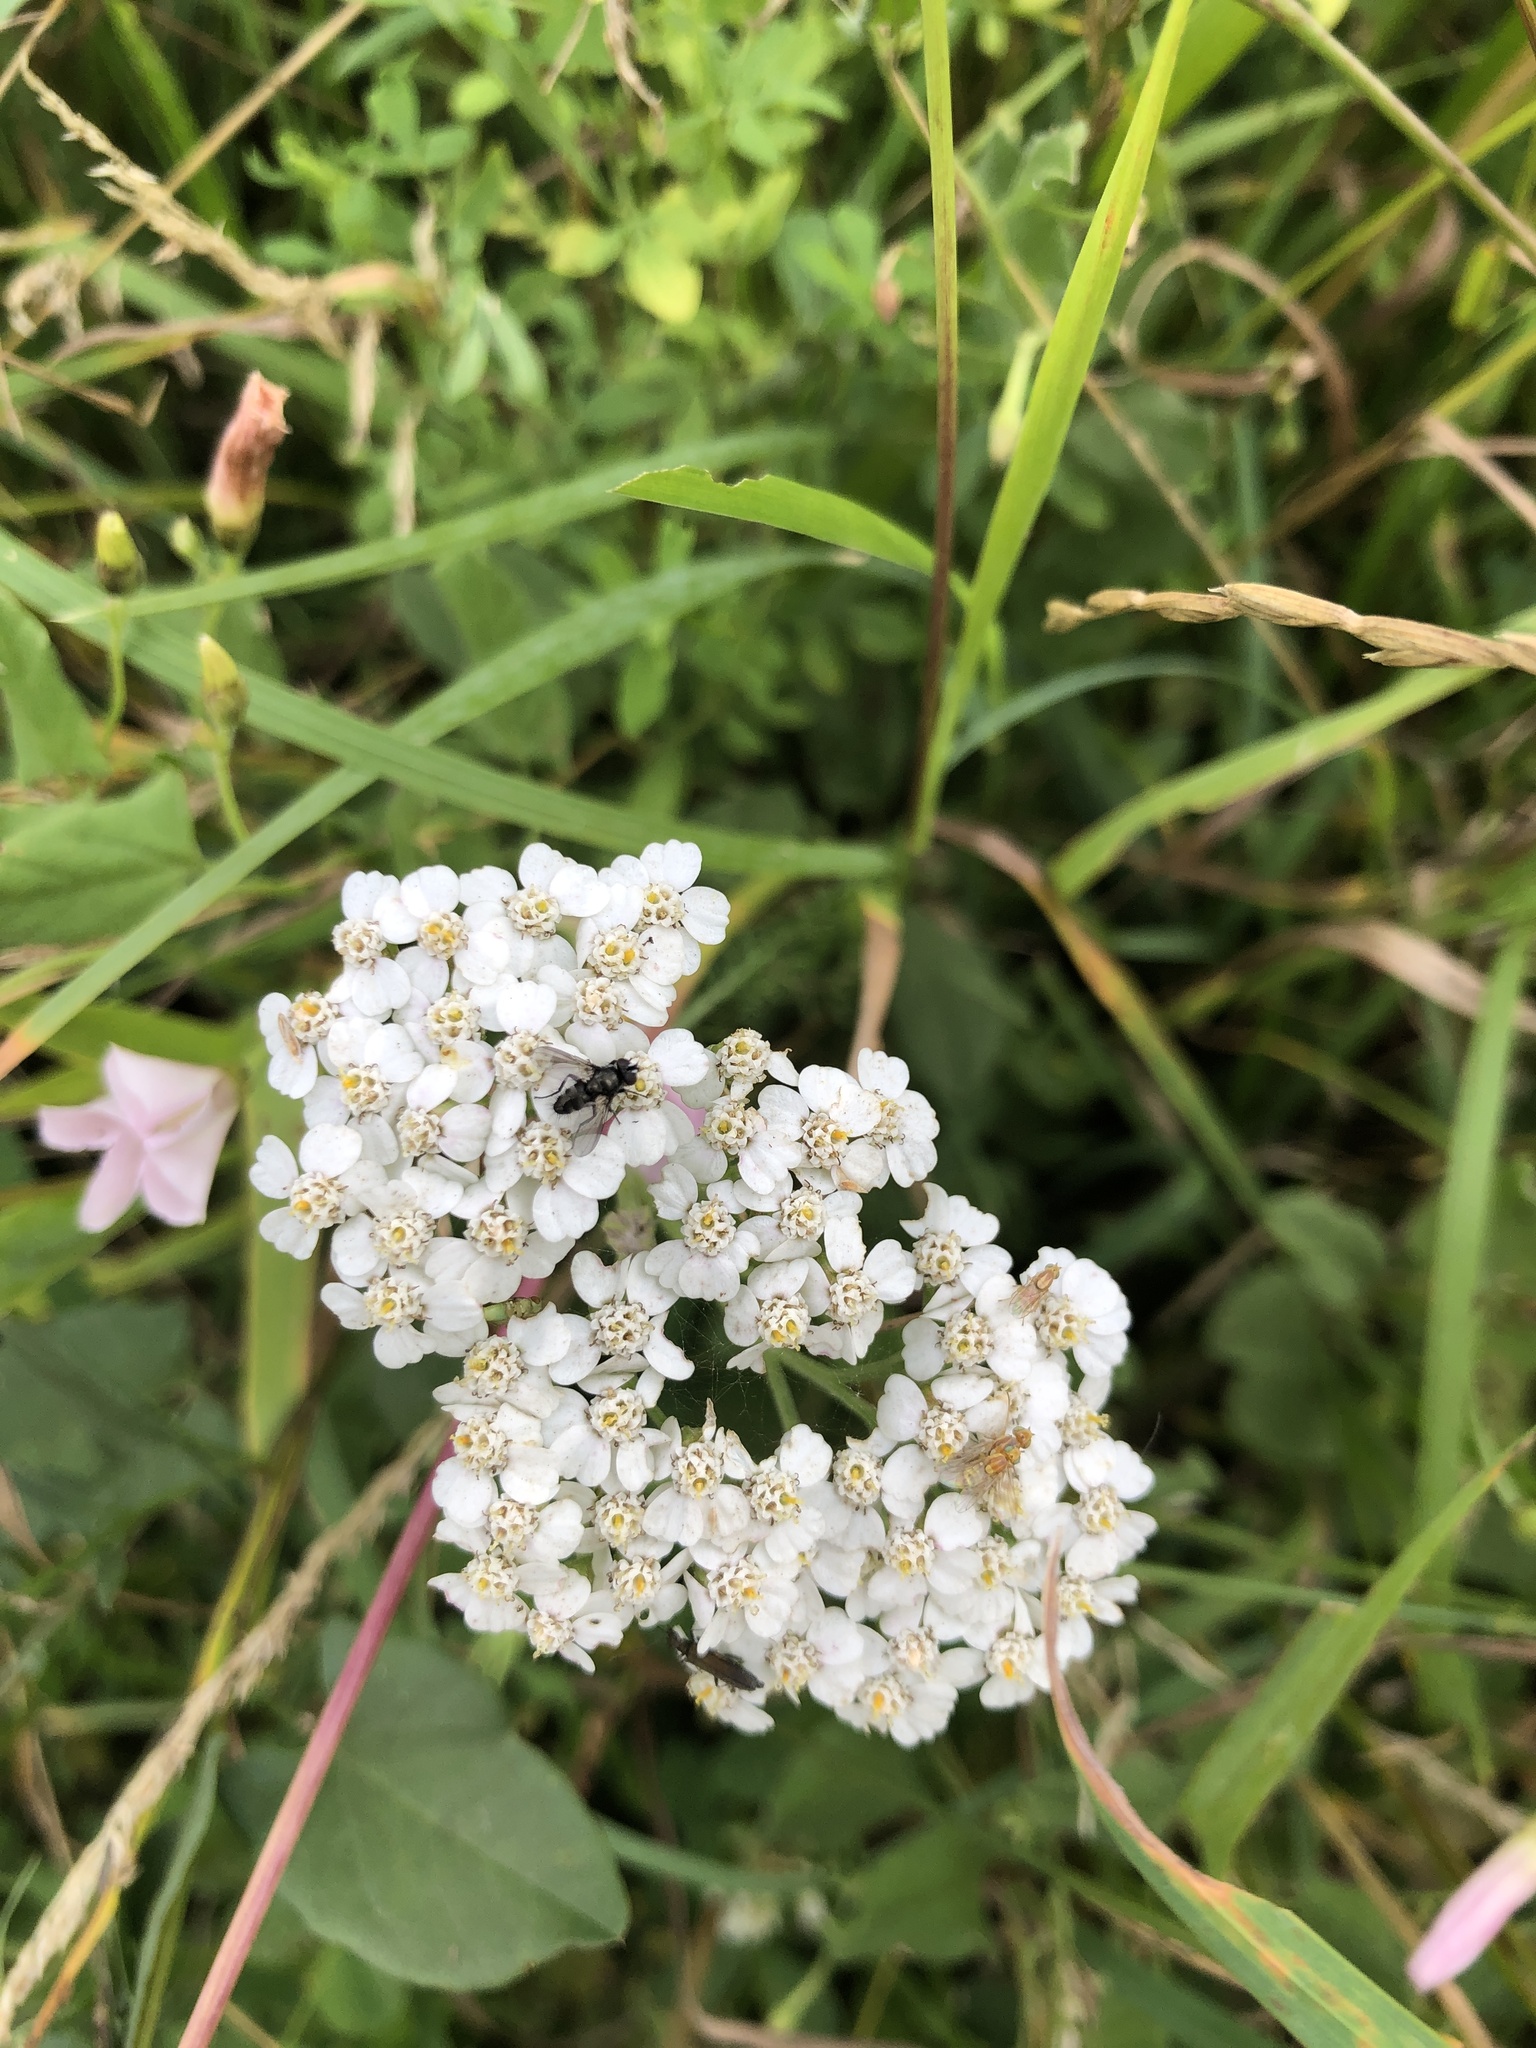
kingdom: Plantae
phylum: Tracheophyta
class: Magnoliopsida
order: Asterales
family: Asteraceae
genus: Achillea
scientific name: Achillea millefolium
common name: Yarrow
